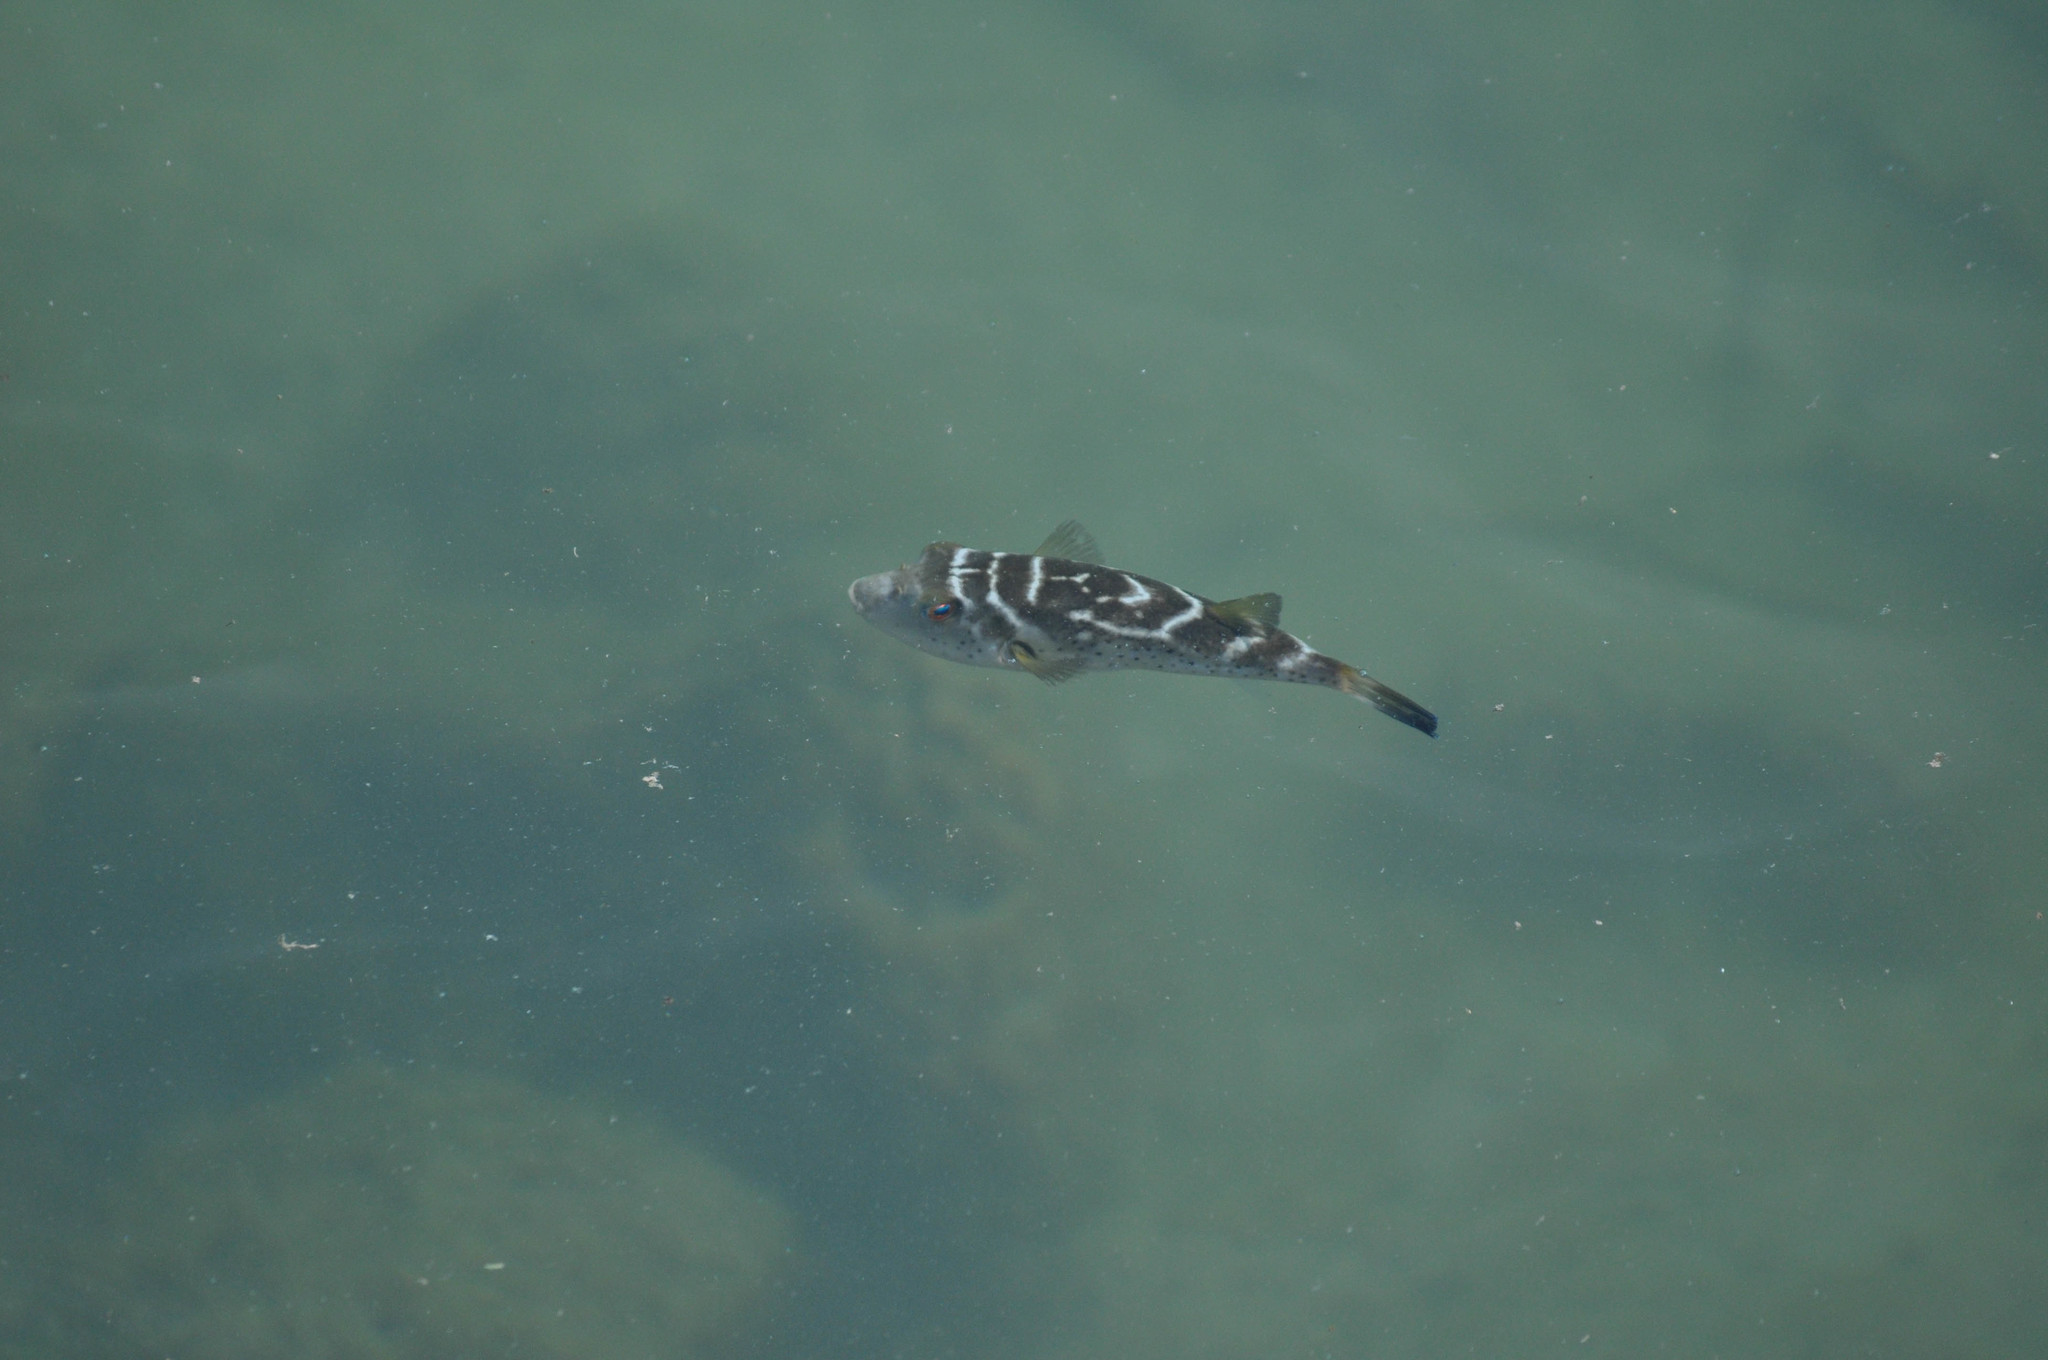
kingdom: Animalia
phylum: Chordata
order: Tetraodontiformes
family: Tetraodontidae
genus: Sphoeroides
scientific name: Sphoeroides annulatus
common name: Bullseye puffer
